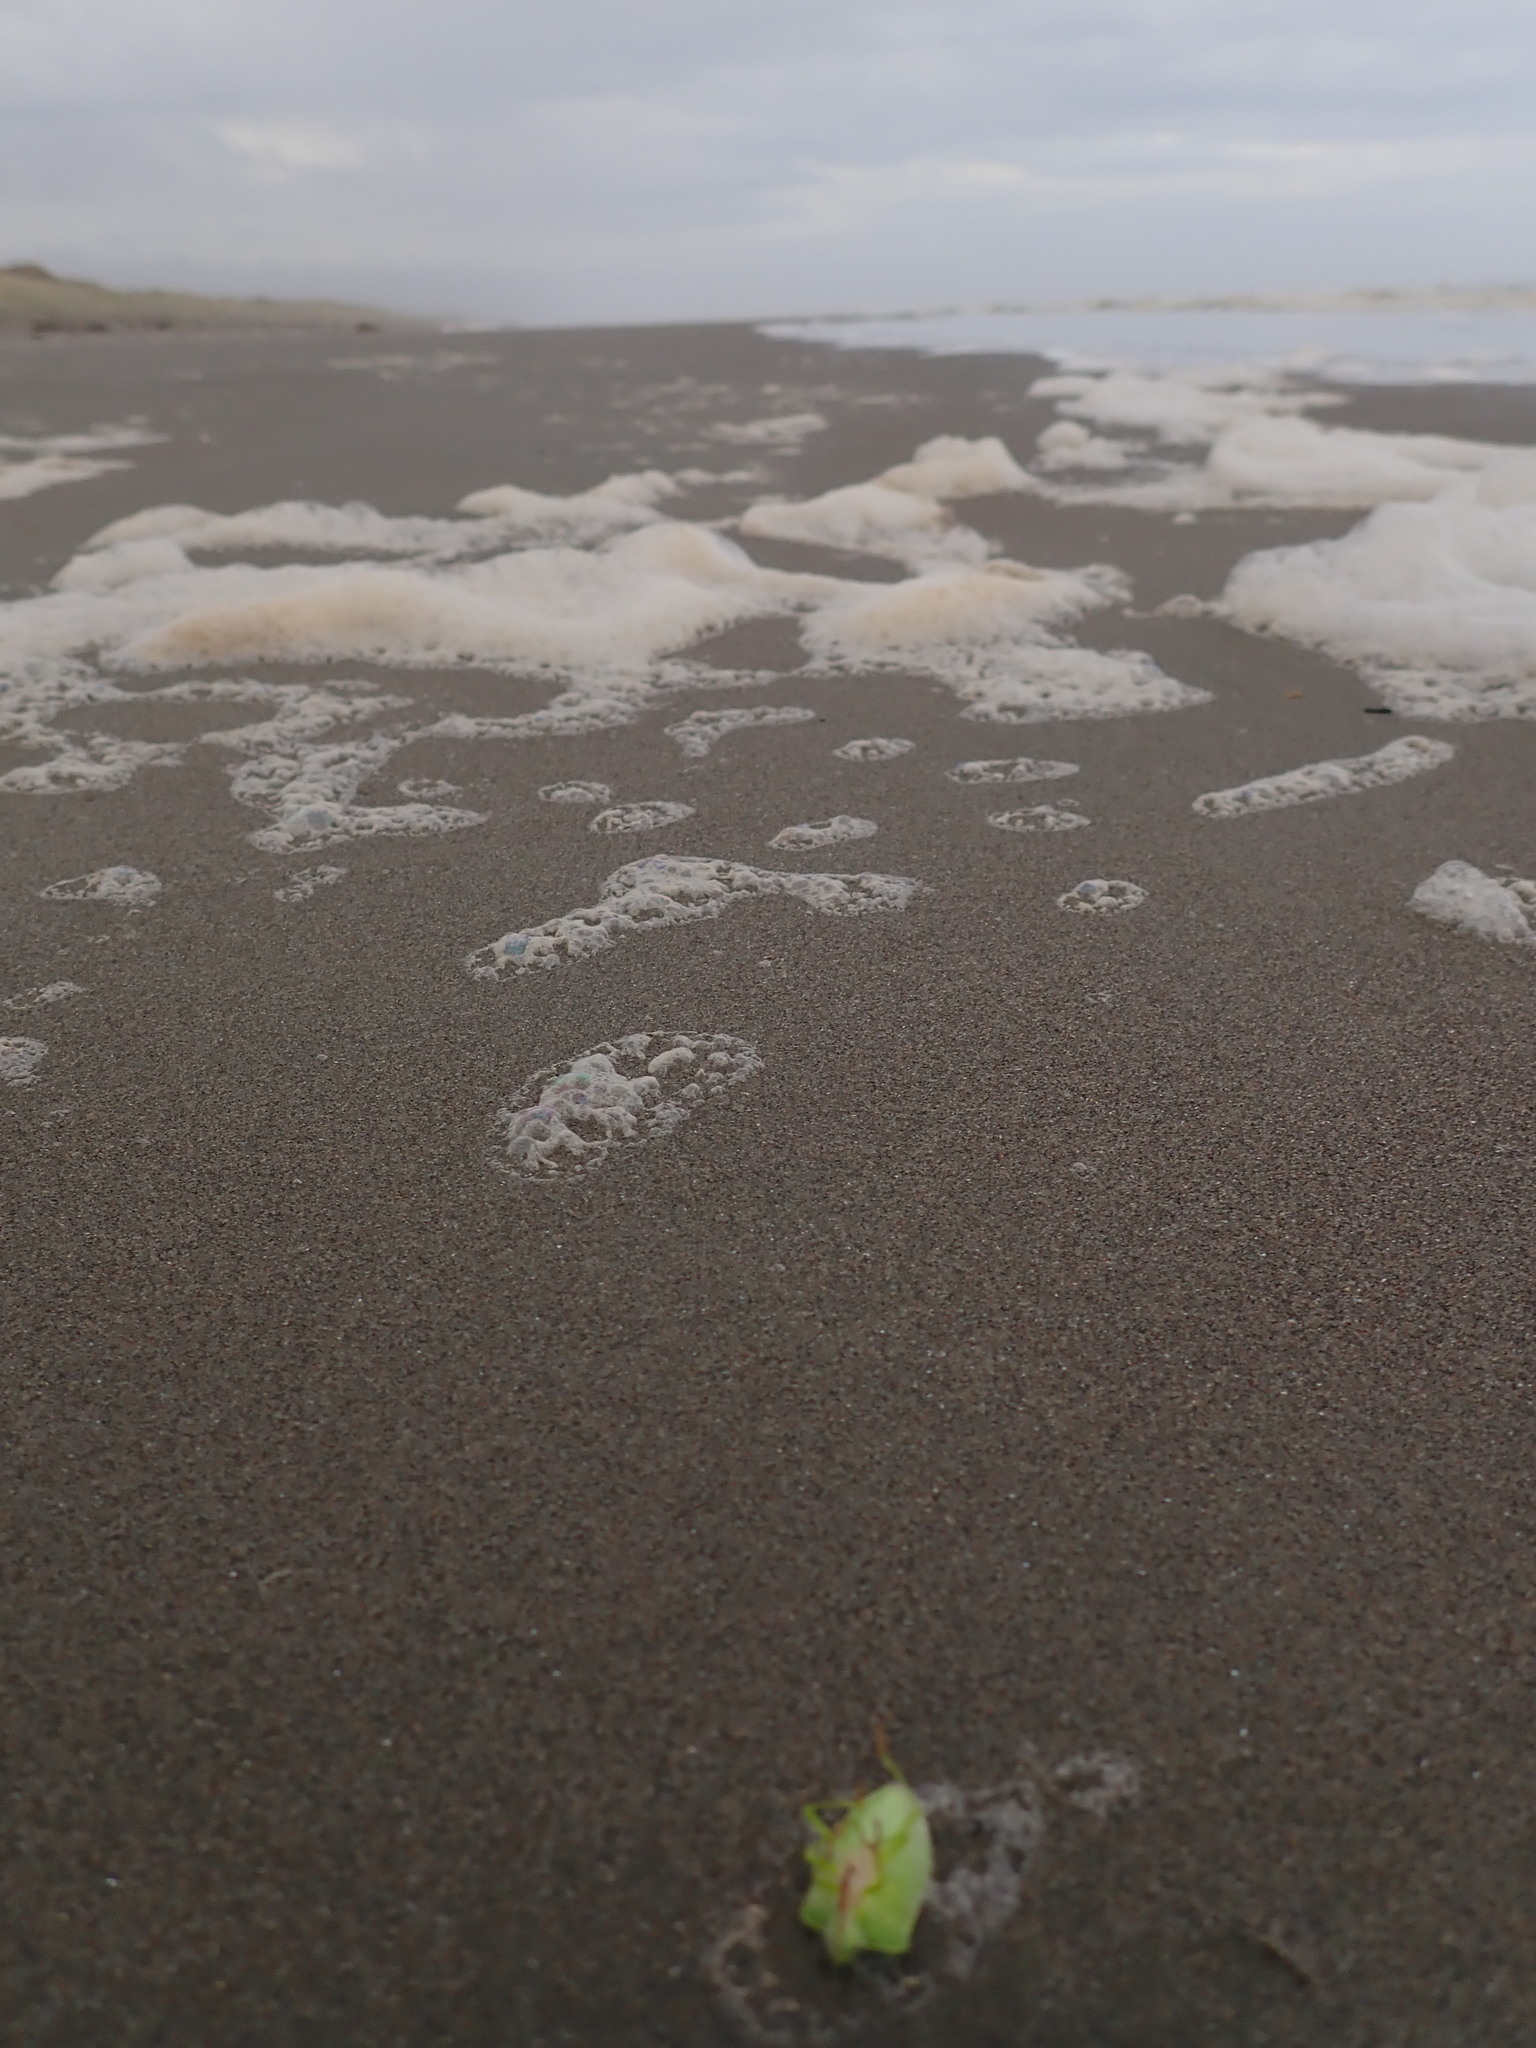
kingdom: Animalia
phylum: Arthropoda
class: Insecta
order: Hemiptera
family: Pentatomidae
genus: Nezara
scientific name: Nezara viridula
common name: Southern green stink bug
